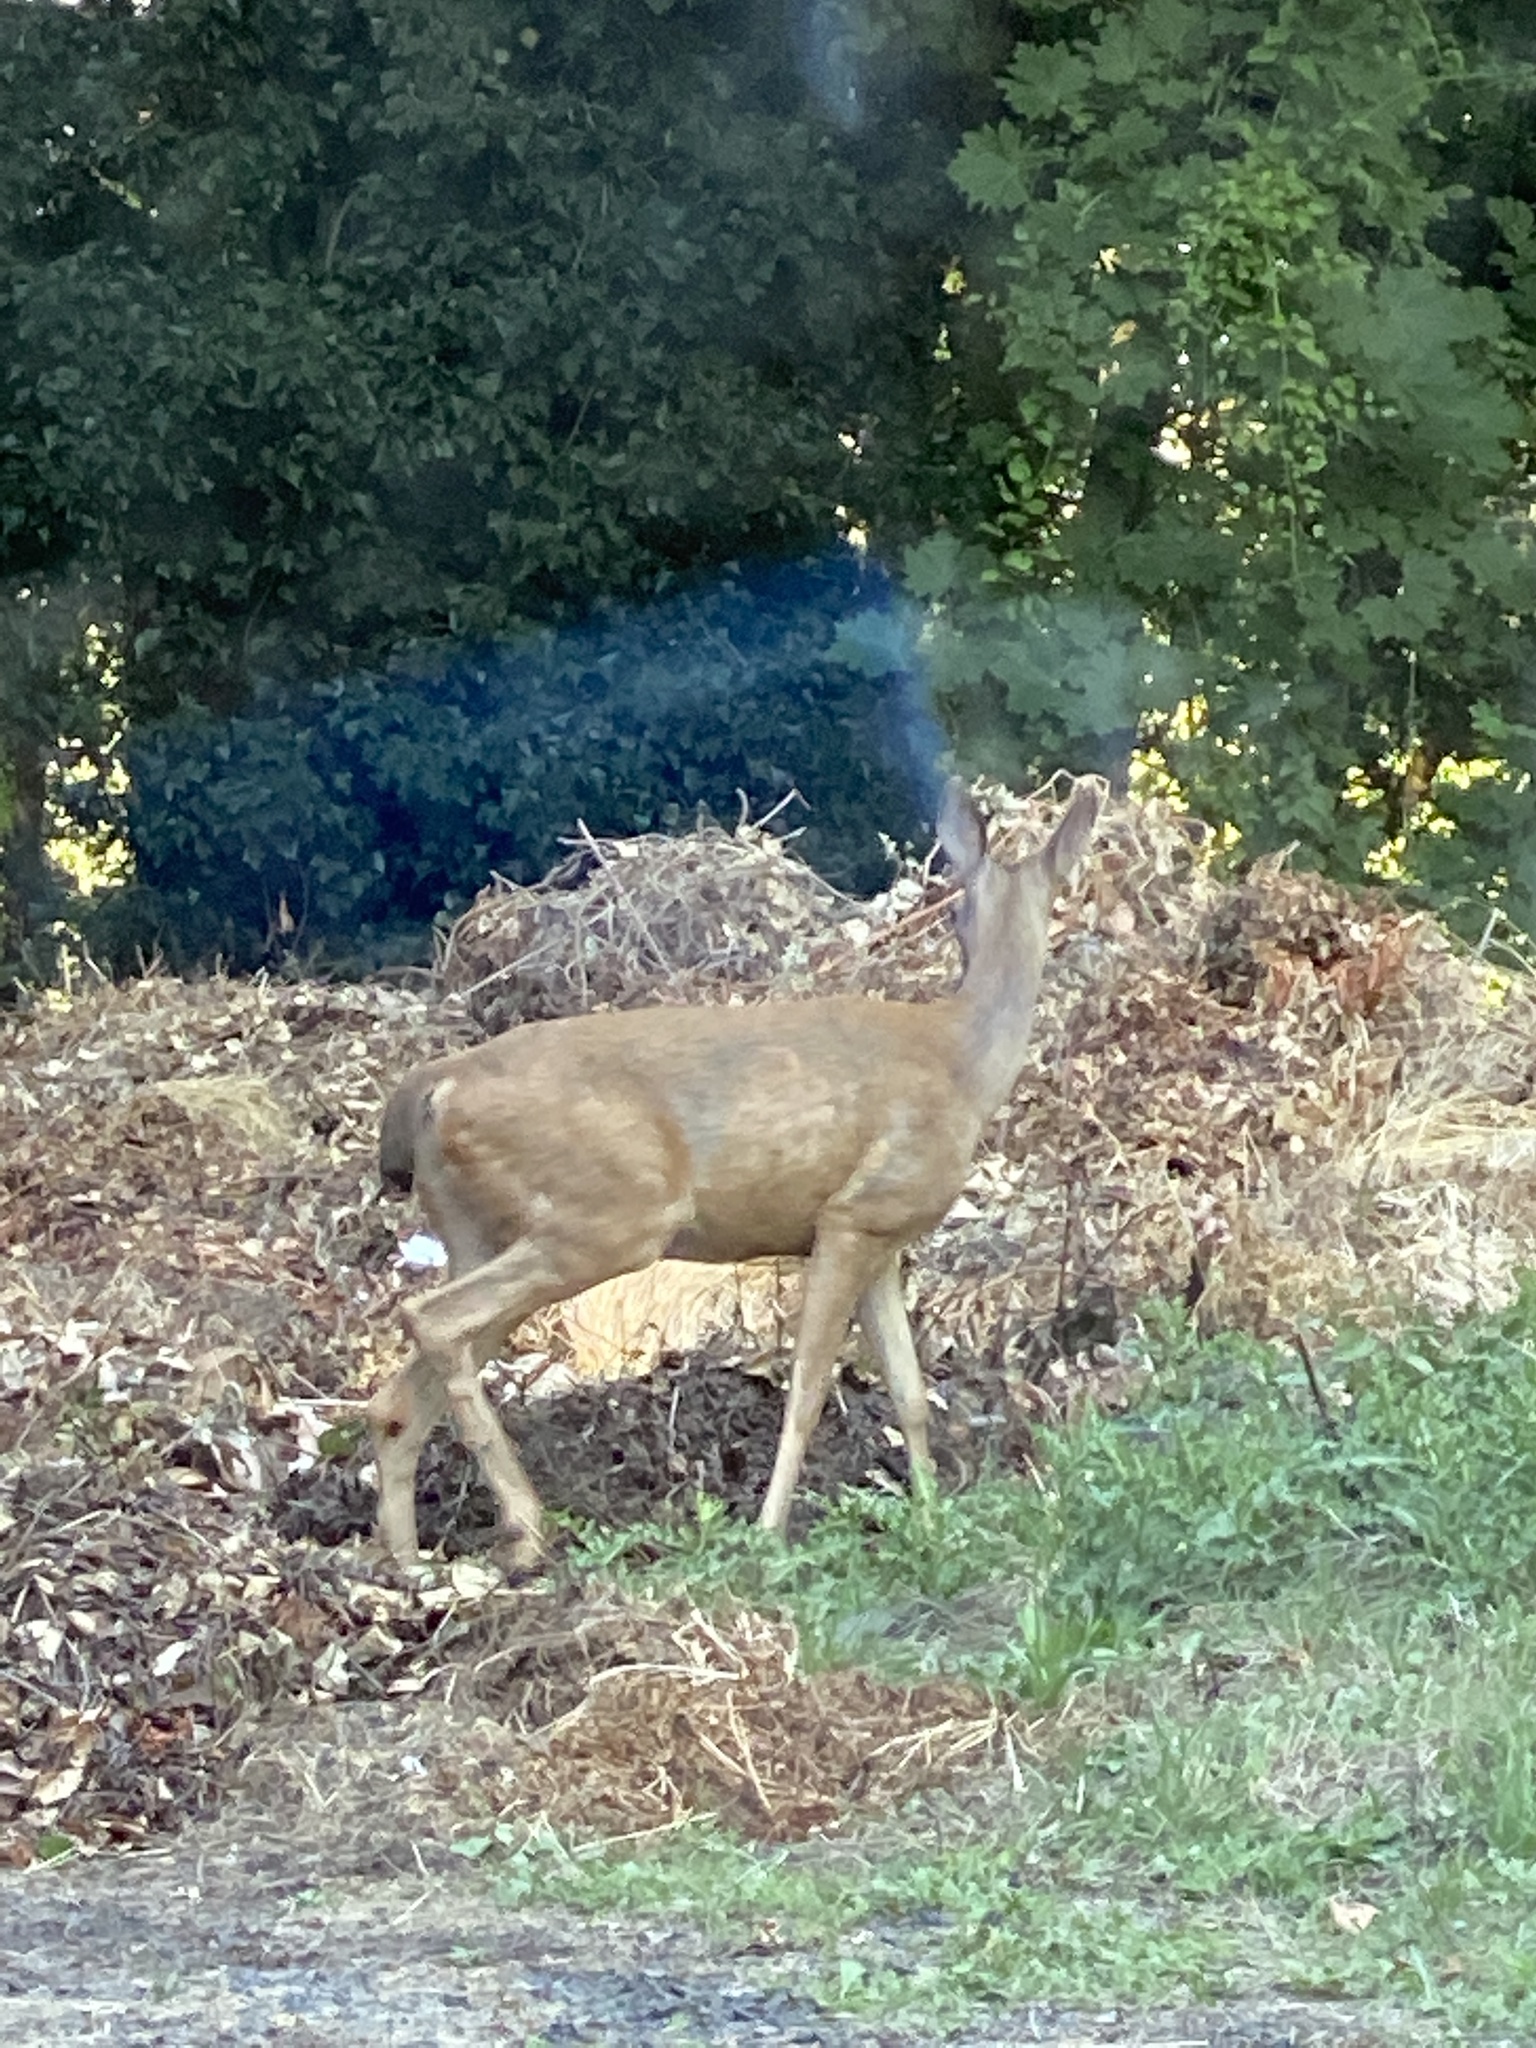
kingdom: Animalia
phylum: Chordata
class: Mammalia
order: Artiodactyla
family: Cervidae
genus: Odocoileus
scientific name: Odocoileus hemionus
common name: Mule deer
